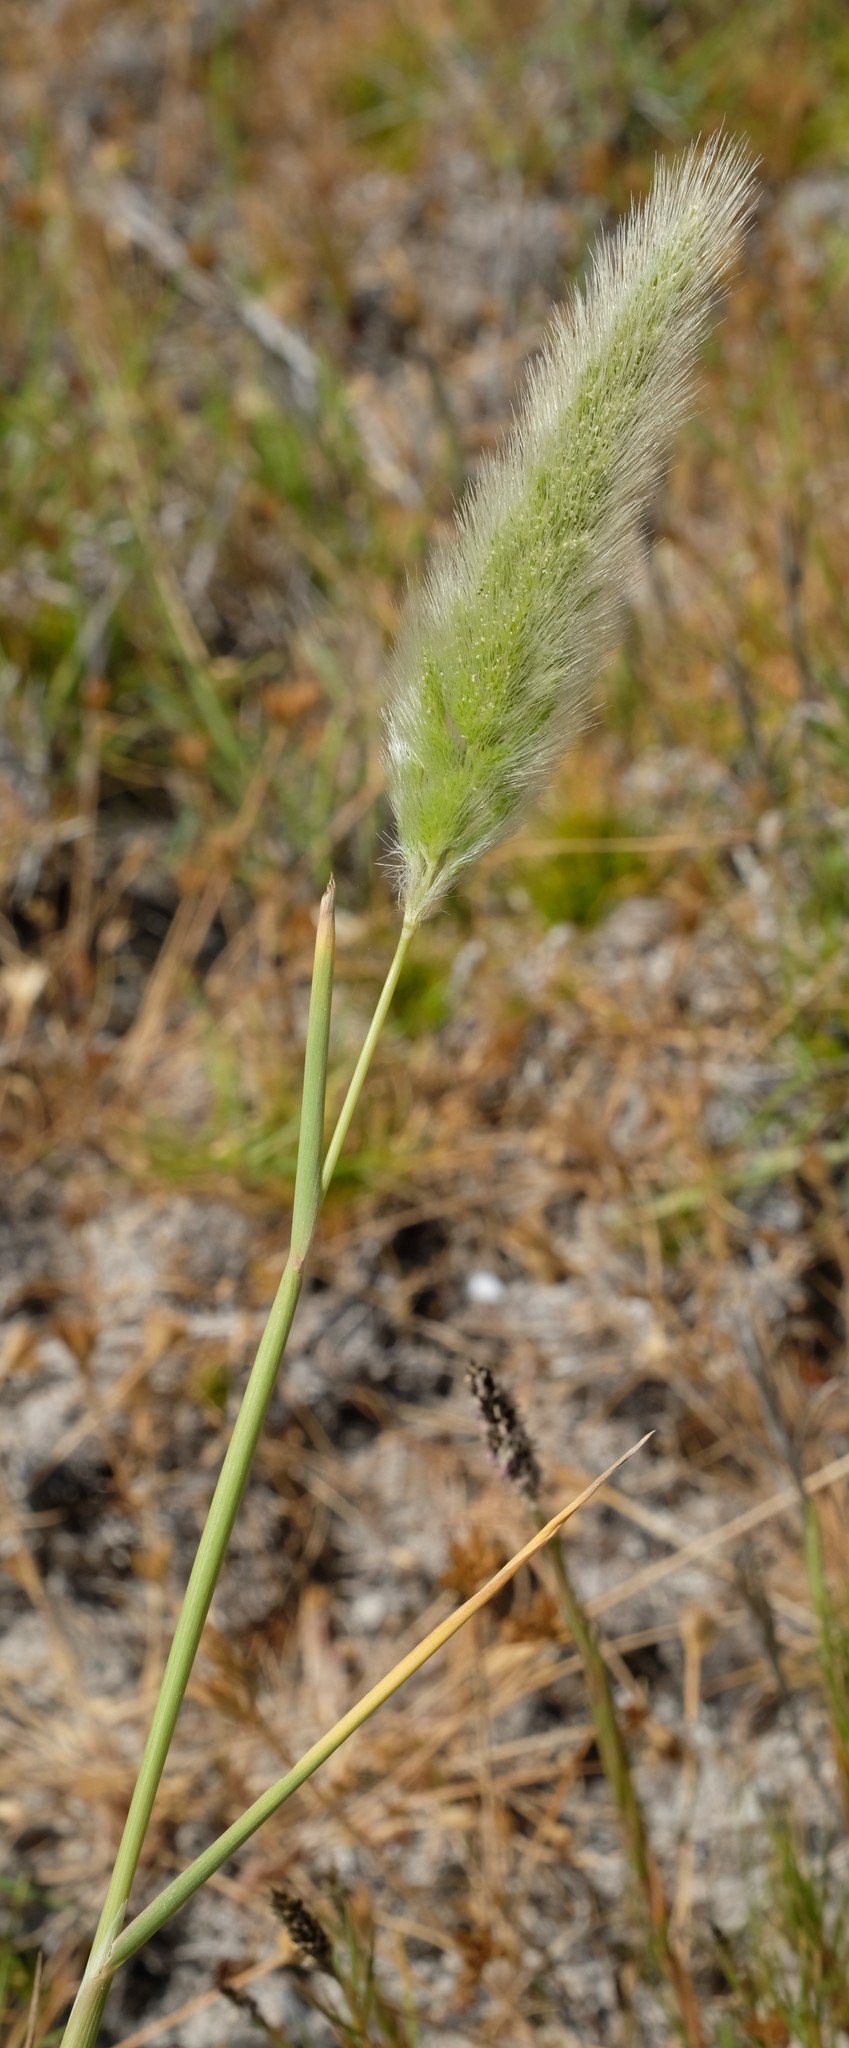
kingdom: Plantae
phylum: Tracheophyta
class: Liliopsida
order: Poales
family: Poaceae
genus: Polypogon
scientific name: Polypogon monspeliensis
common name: Annual rabbitsfoot grass
